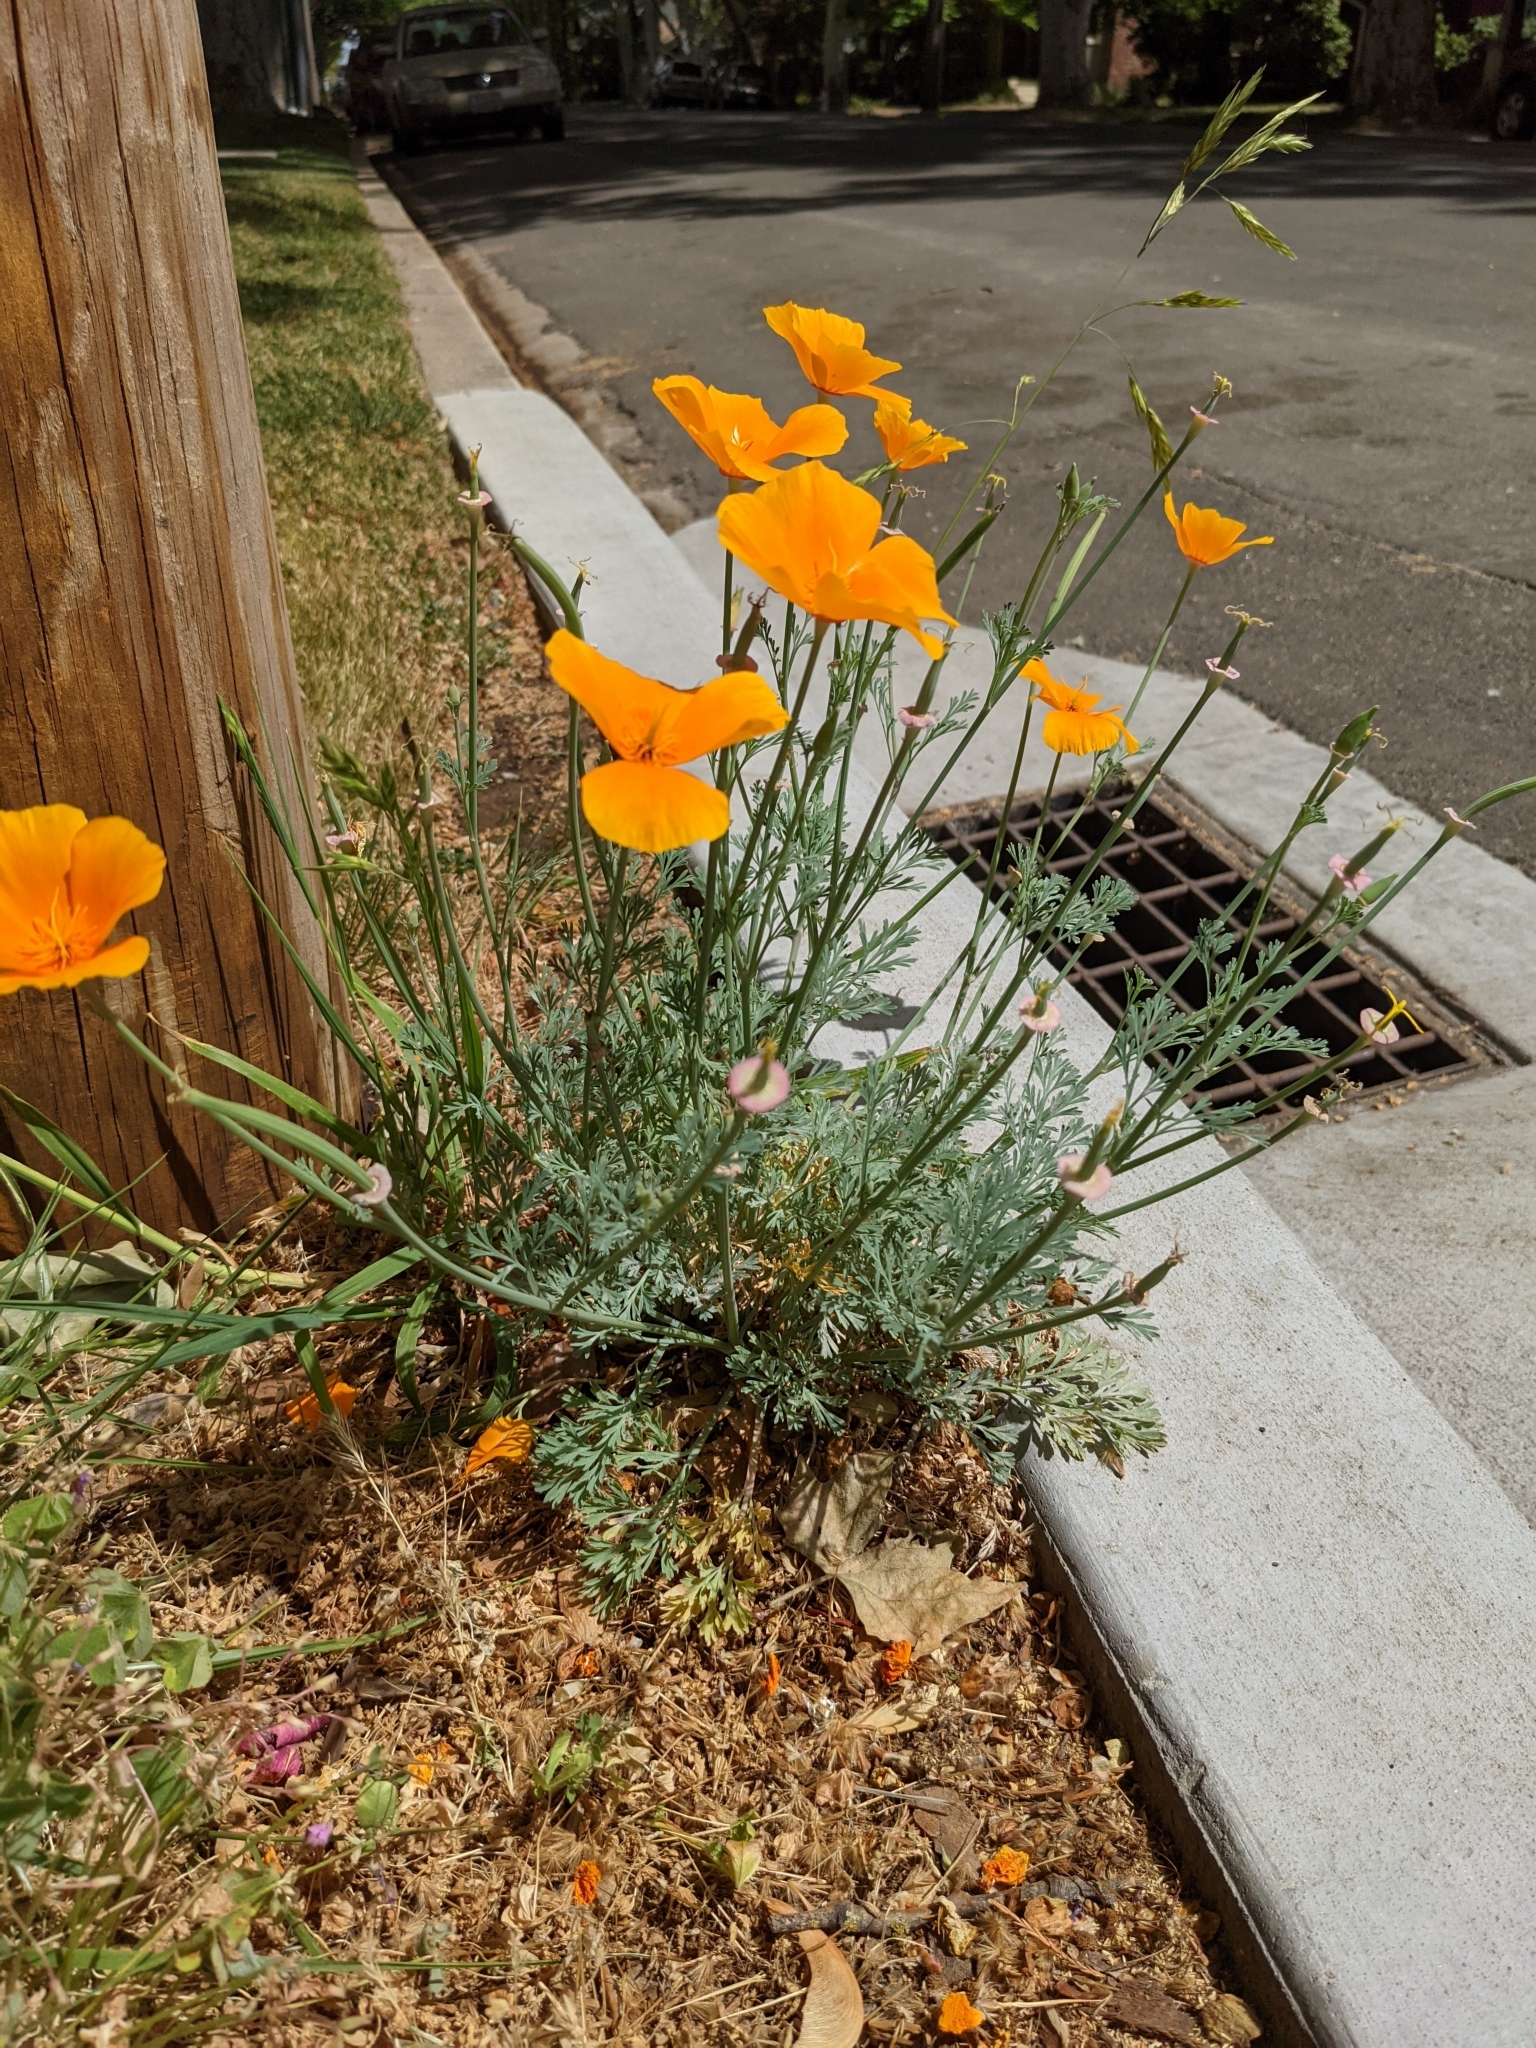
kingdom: Plantae
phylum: Tracheophyta
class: Magnoliopsida
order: Ranunculales
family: Papaveraceae
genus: Eschscholzia
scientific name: Eschscholzia californica
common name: California poppy
